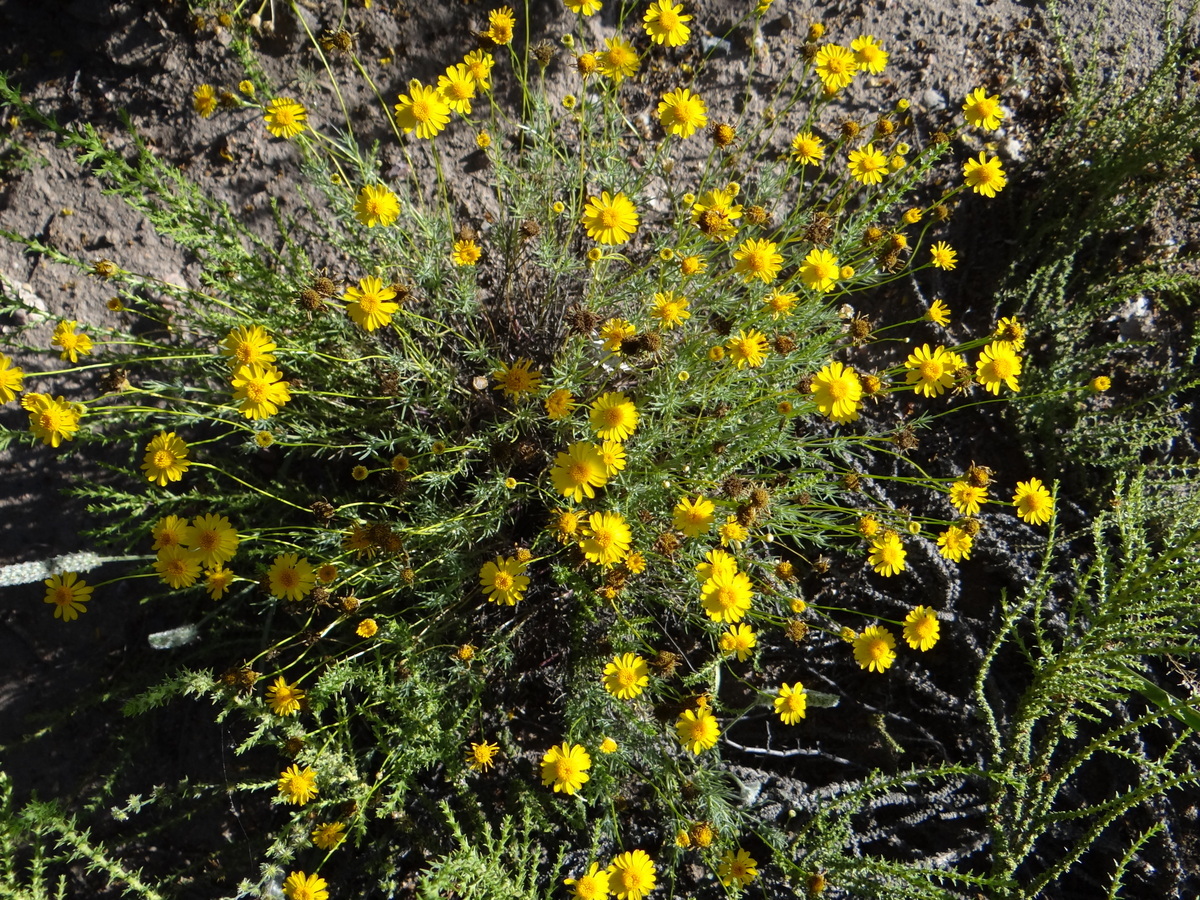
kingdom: Plantae
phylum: Tracheophyta
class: Magnoliopsida
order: Asterales
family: Asteraceae
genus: Thymophylla
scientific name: Thymophylla pentachaeta
